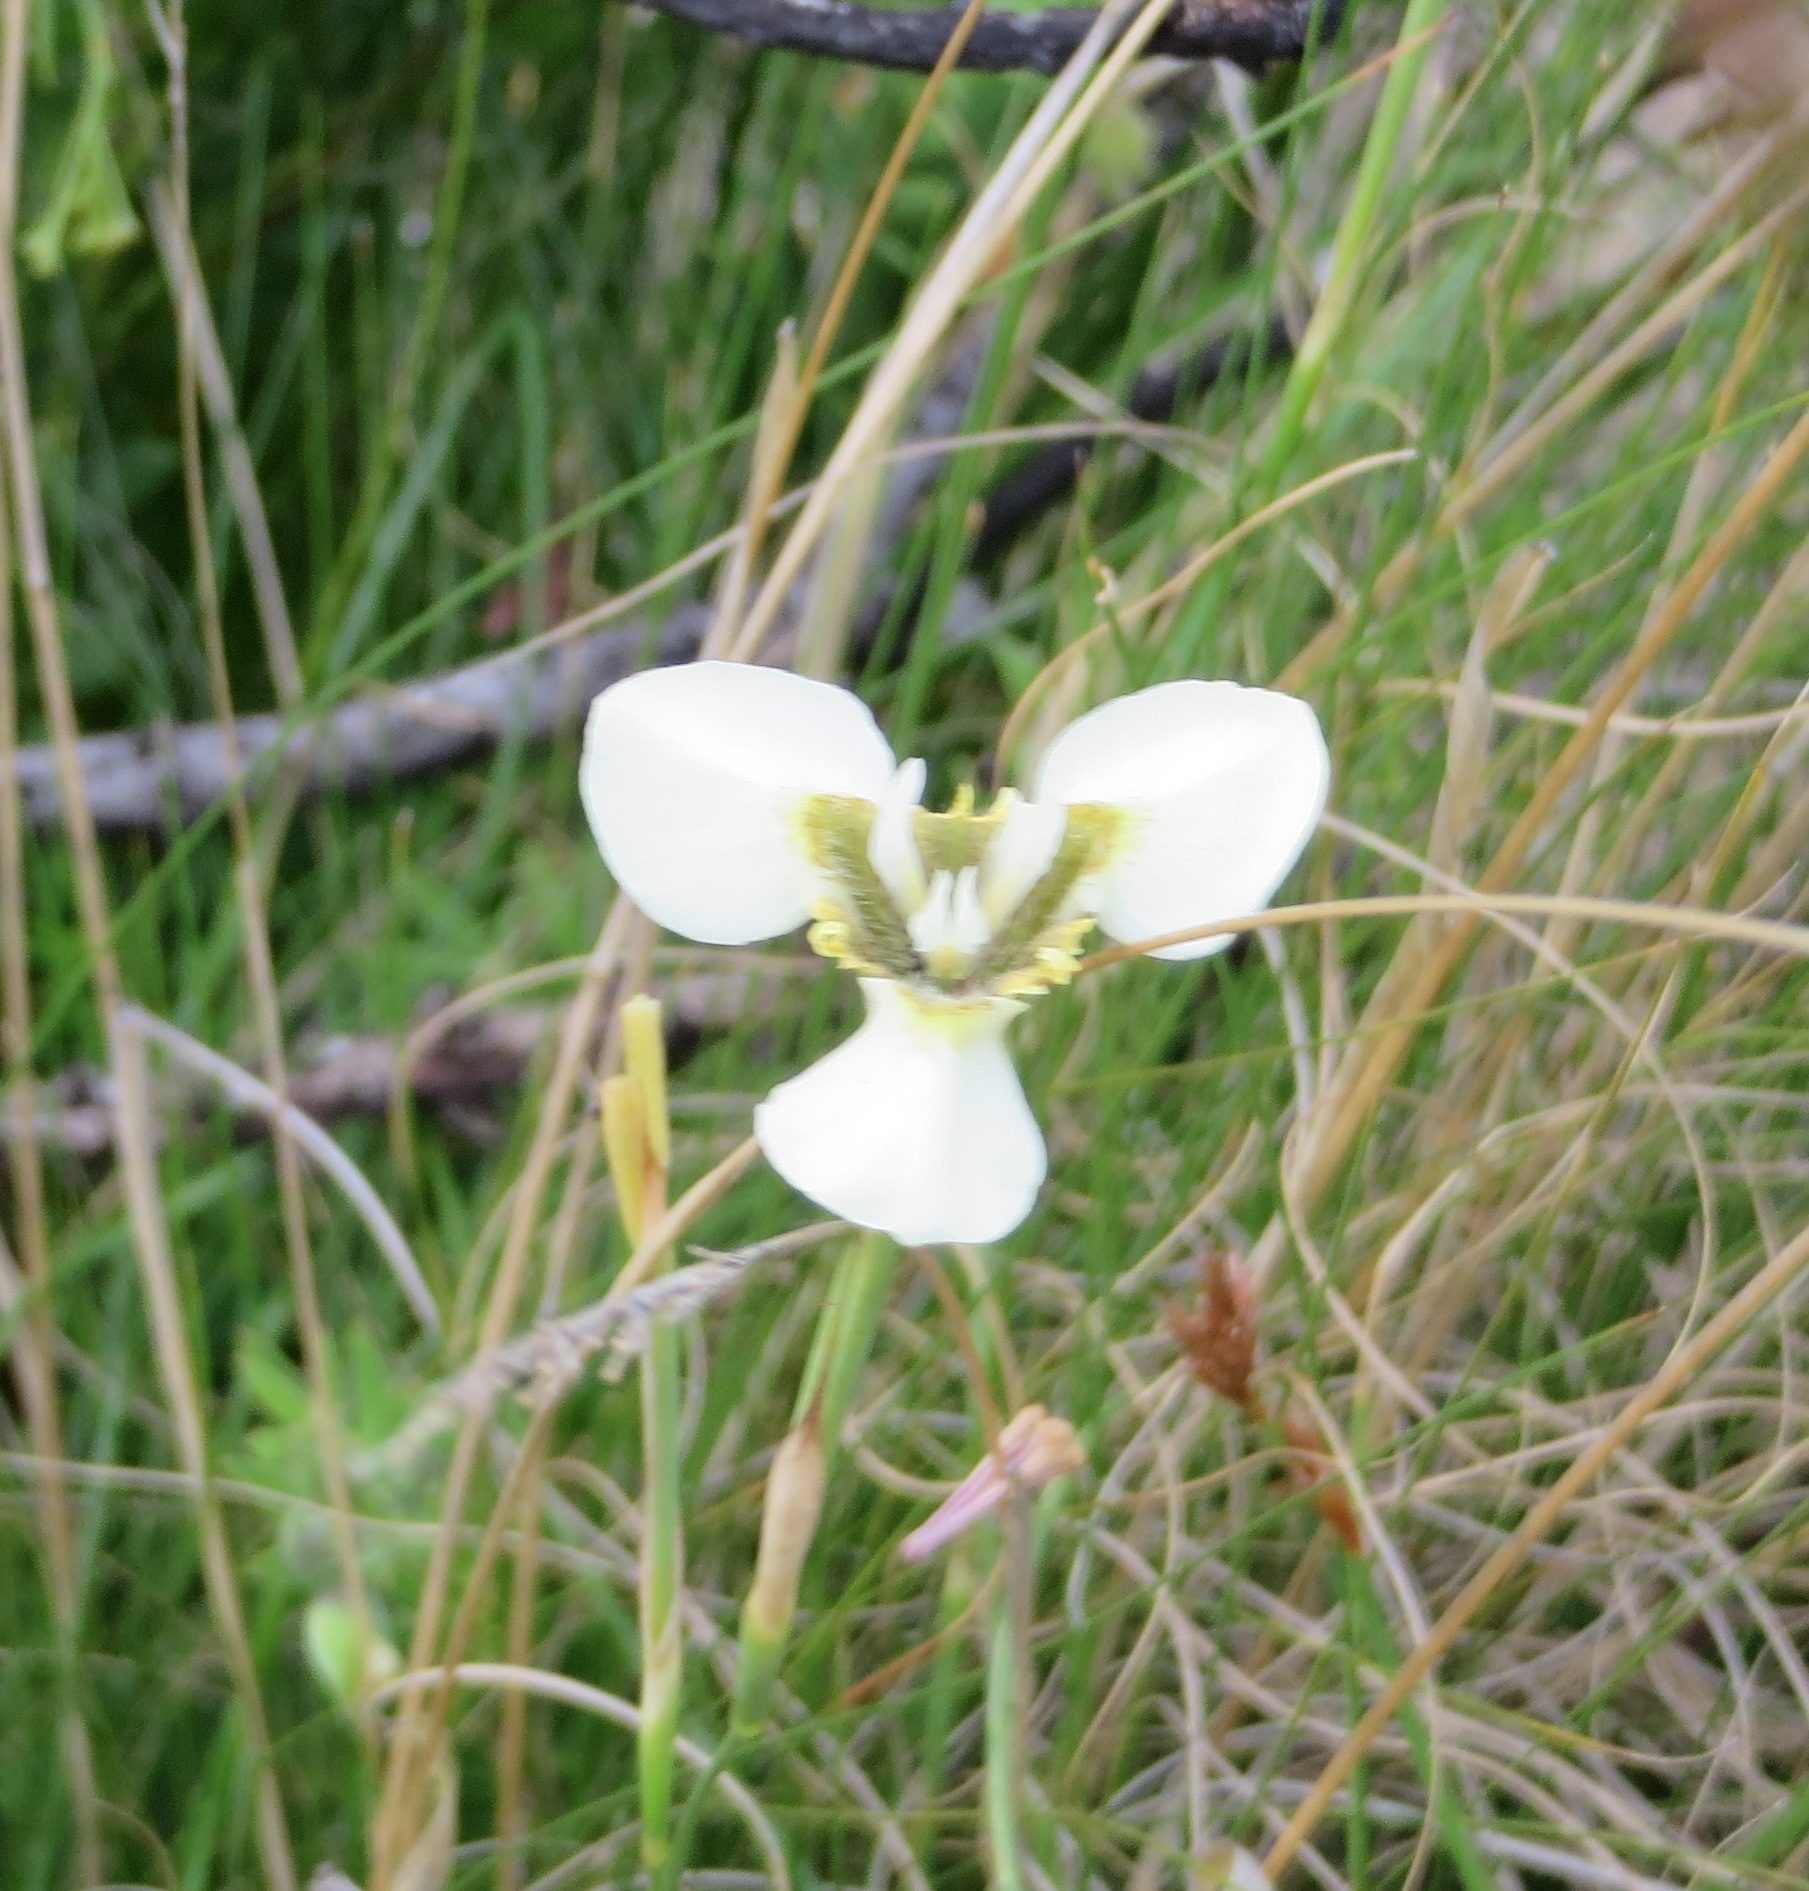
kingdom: Plantae
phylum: Tracheophyta
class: Liliopsida
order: Asparagales
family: Iridaceae
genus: Moraea
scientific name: Moraea tricuspidata
